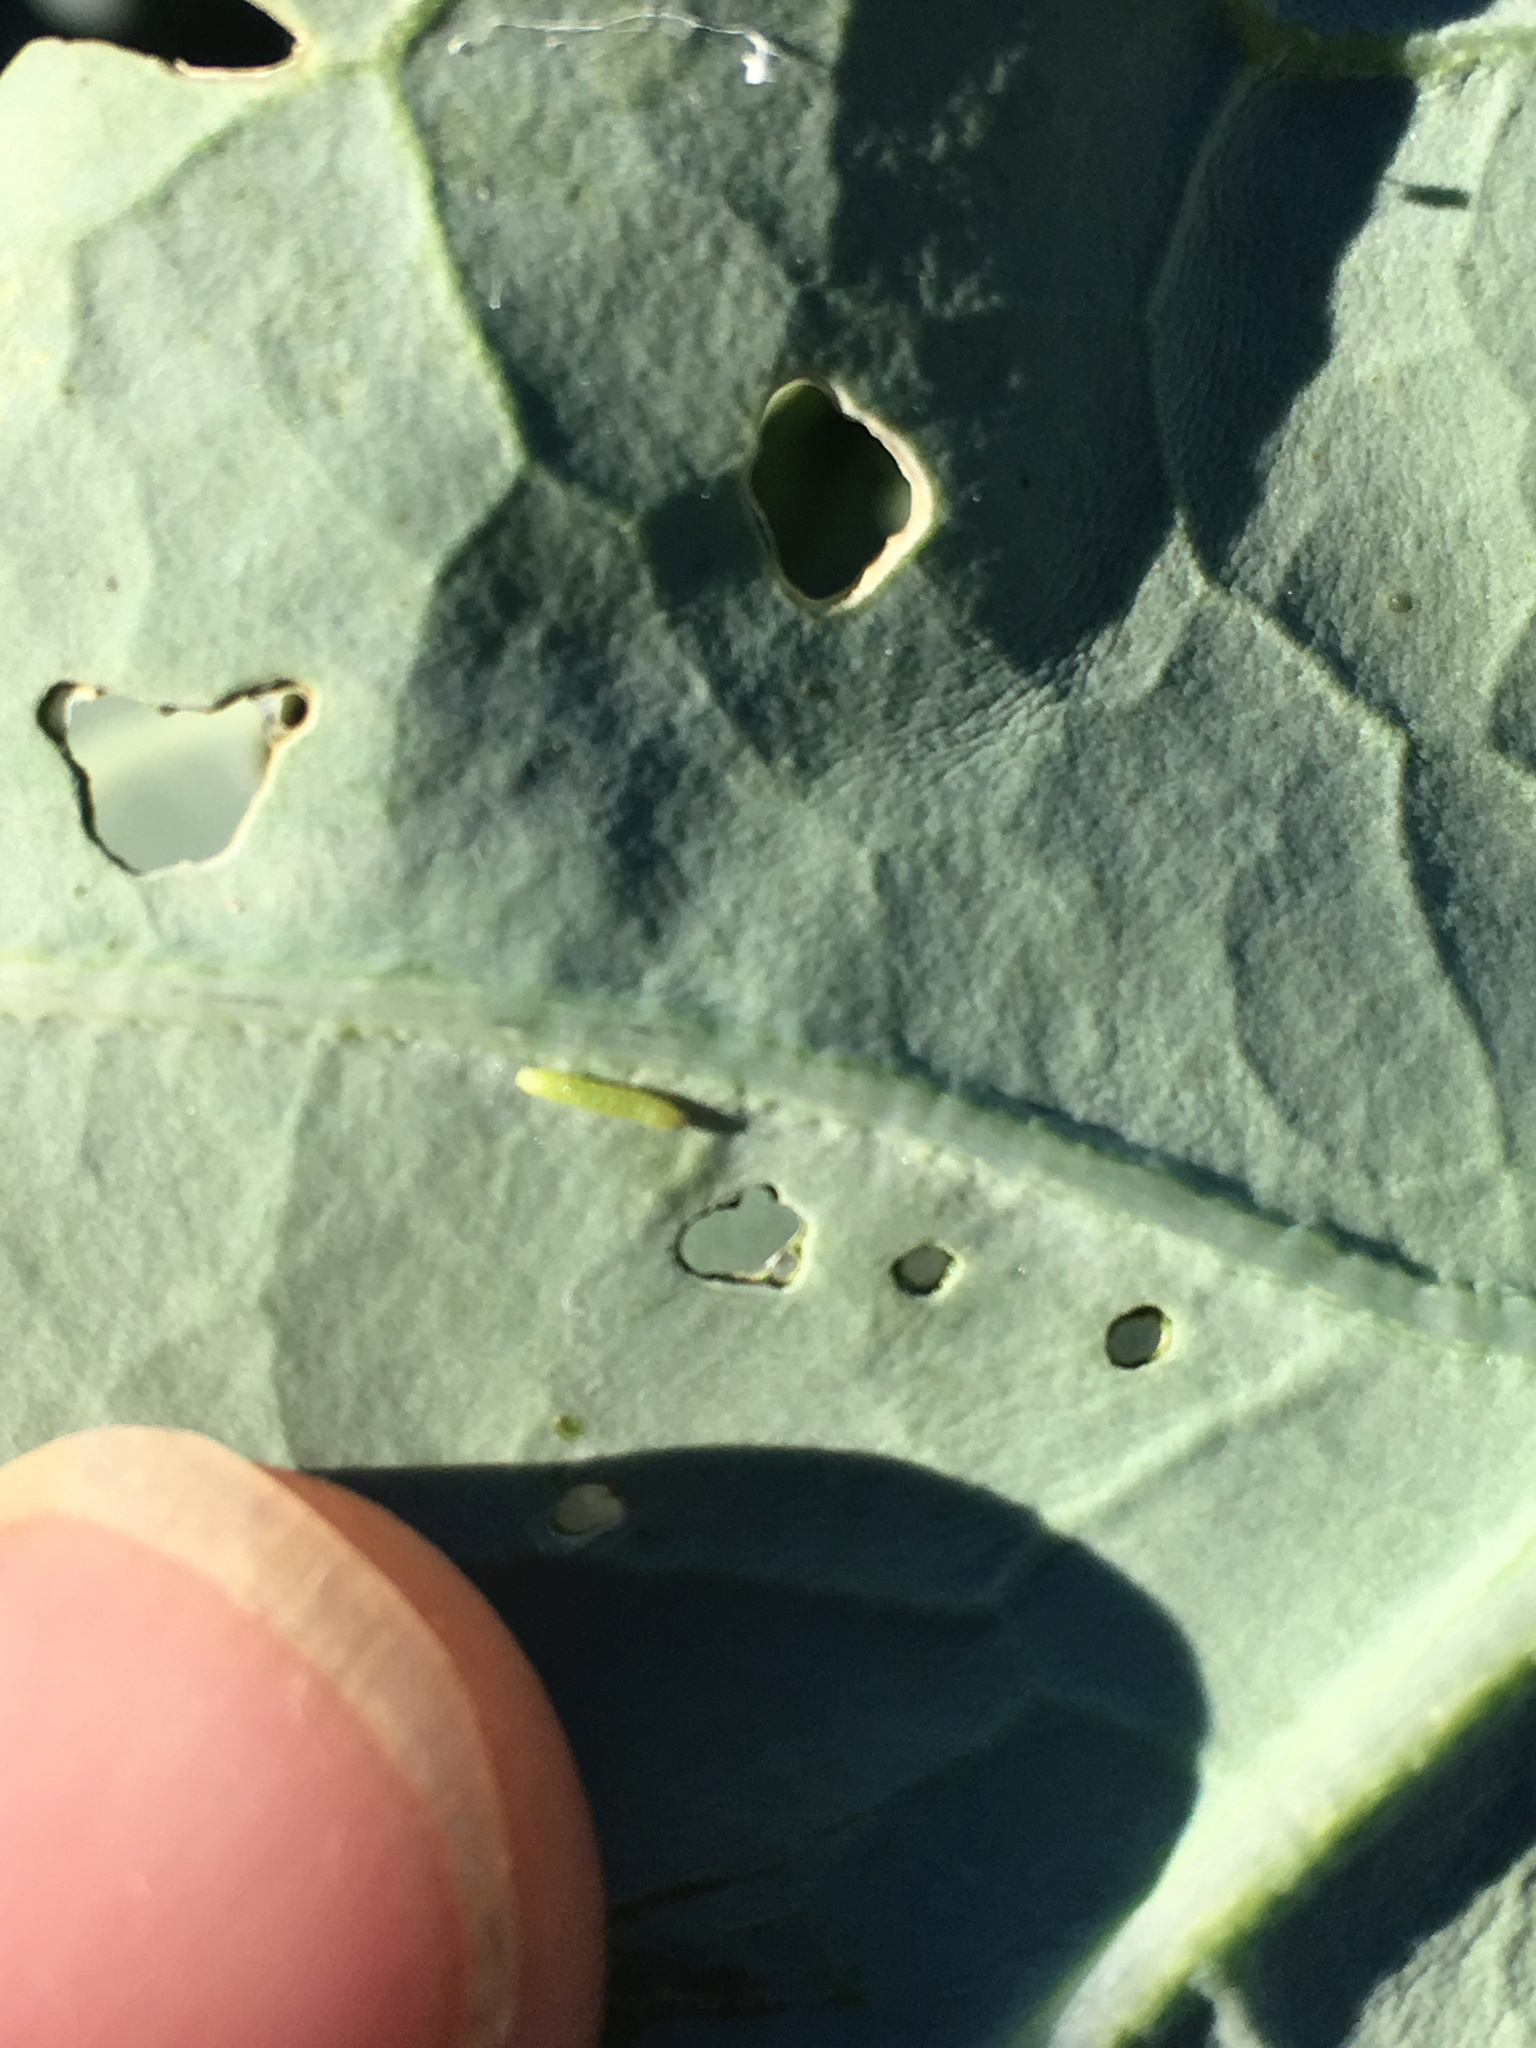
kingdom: Animalia
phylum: Arthropoda
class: Insecta
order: Lepidoptera
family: Pieridae
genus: Pieris
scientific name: Pieris rapae
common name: Small white
